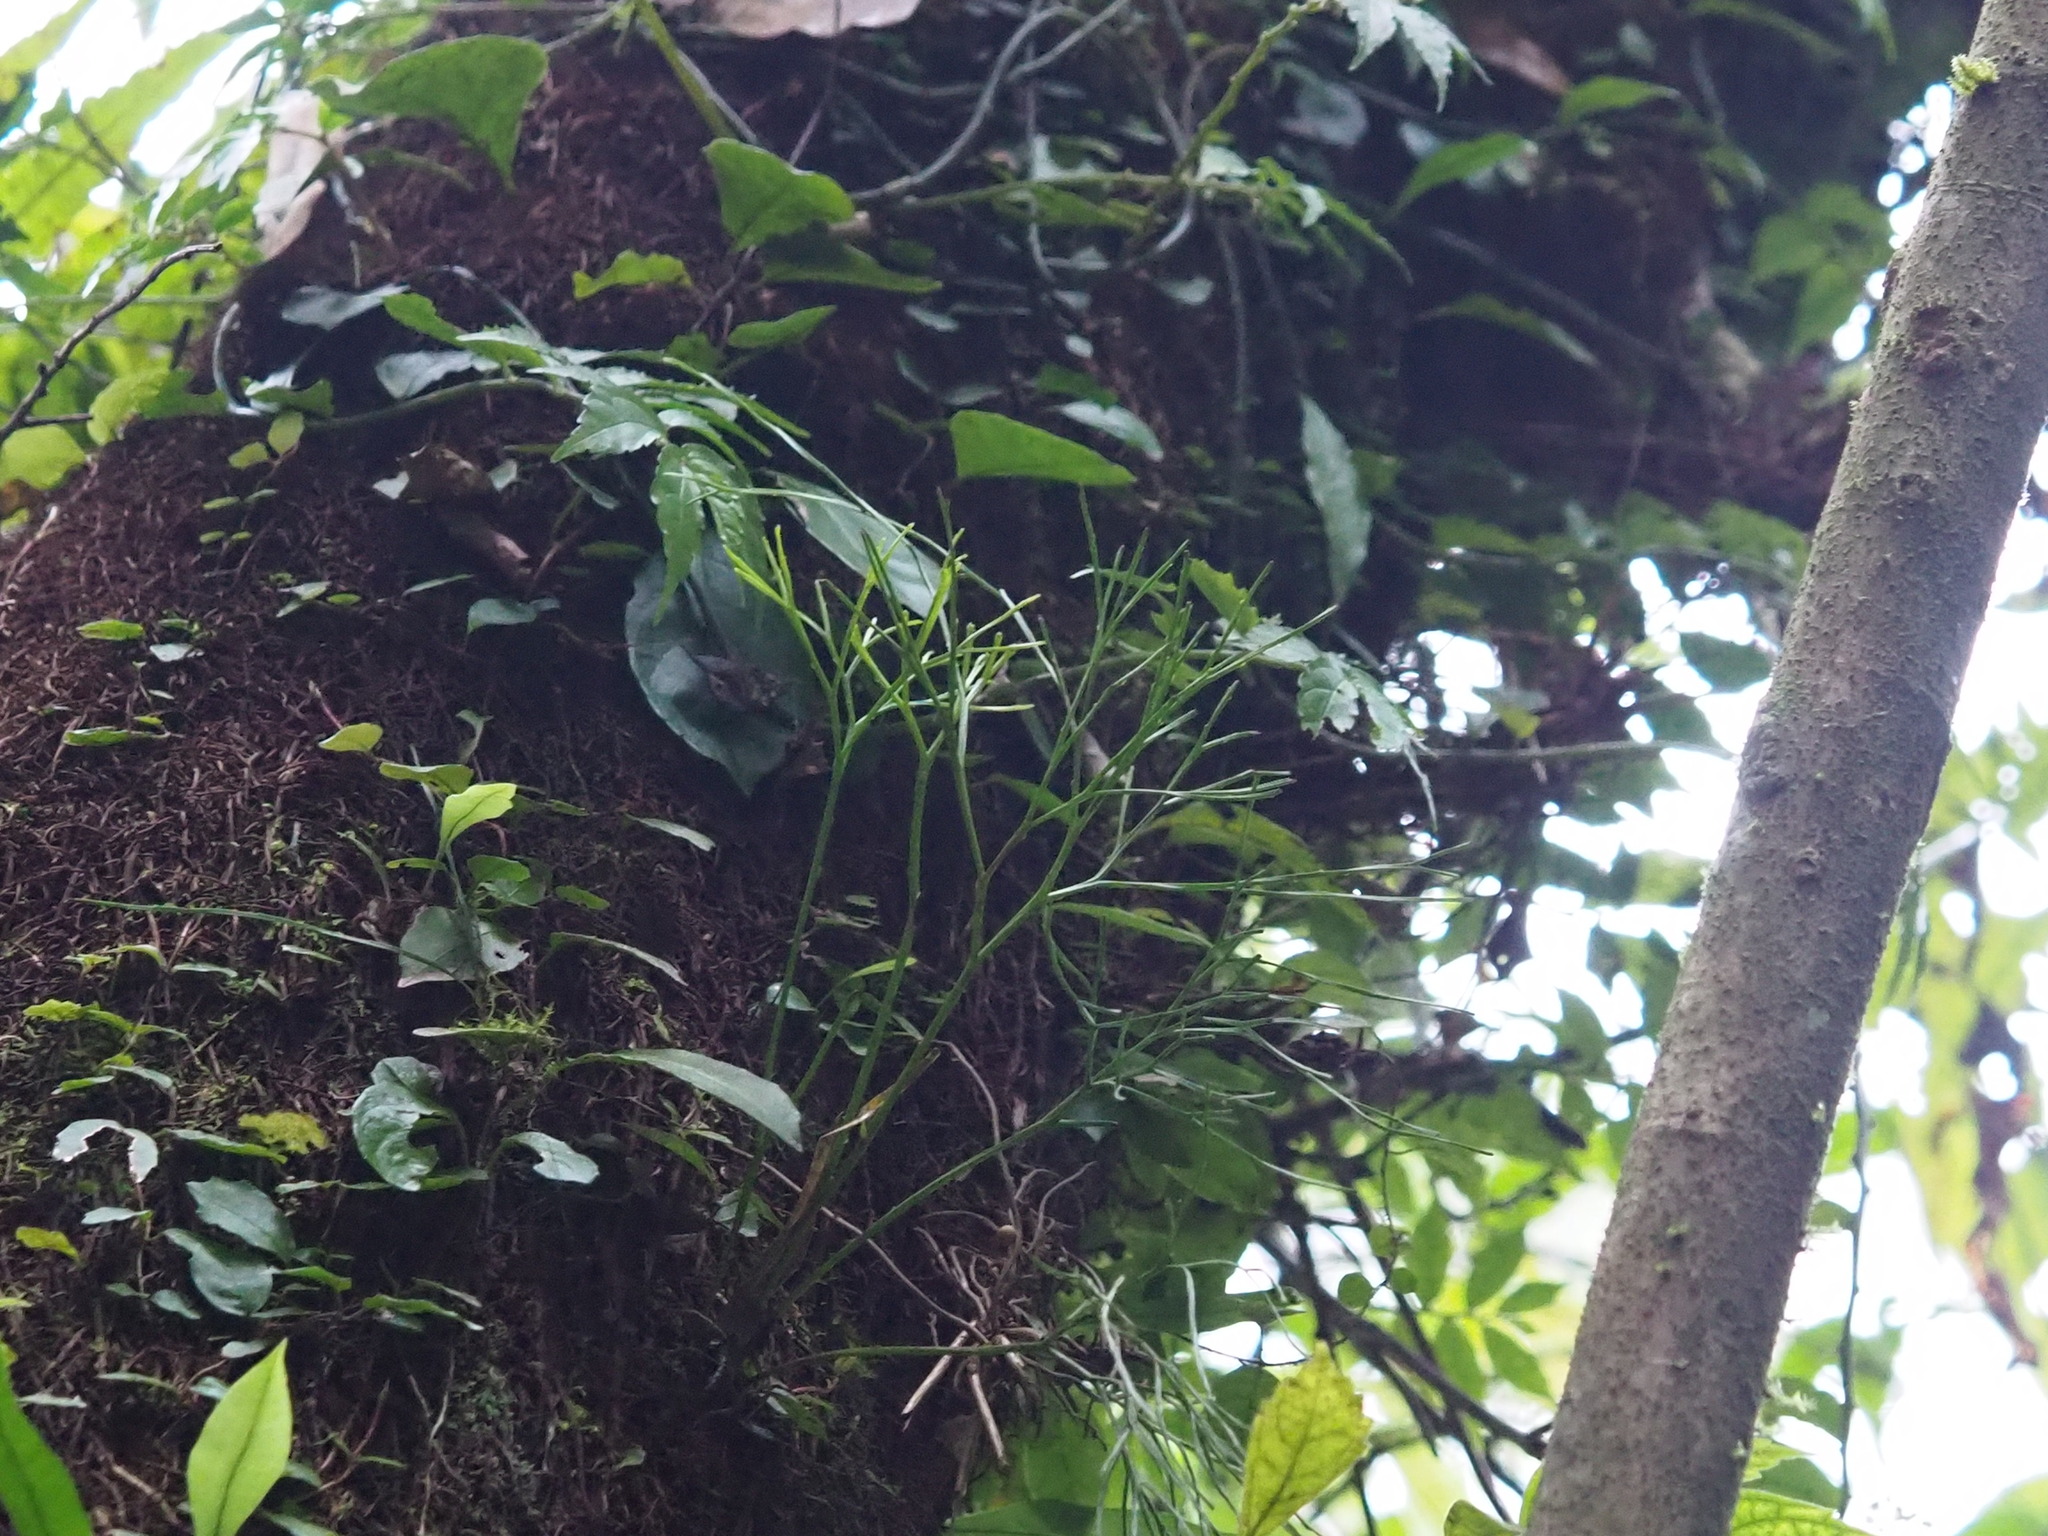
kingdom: Plantae
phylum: Tracheophyta
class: Polypodiopsida
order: Psilotales
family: Psilotaceae
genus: Psilotum
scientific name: Psilotum nudum
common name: Skeleton fork fern
